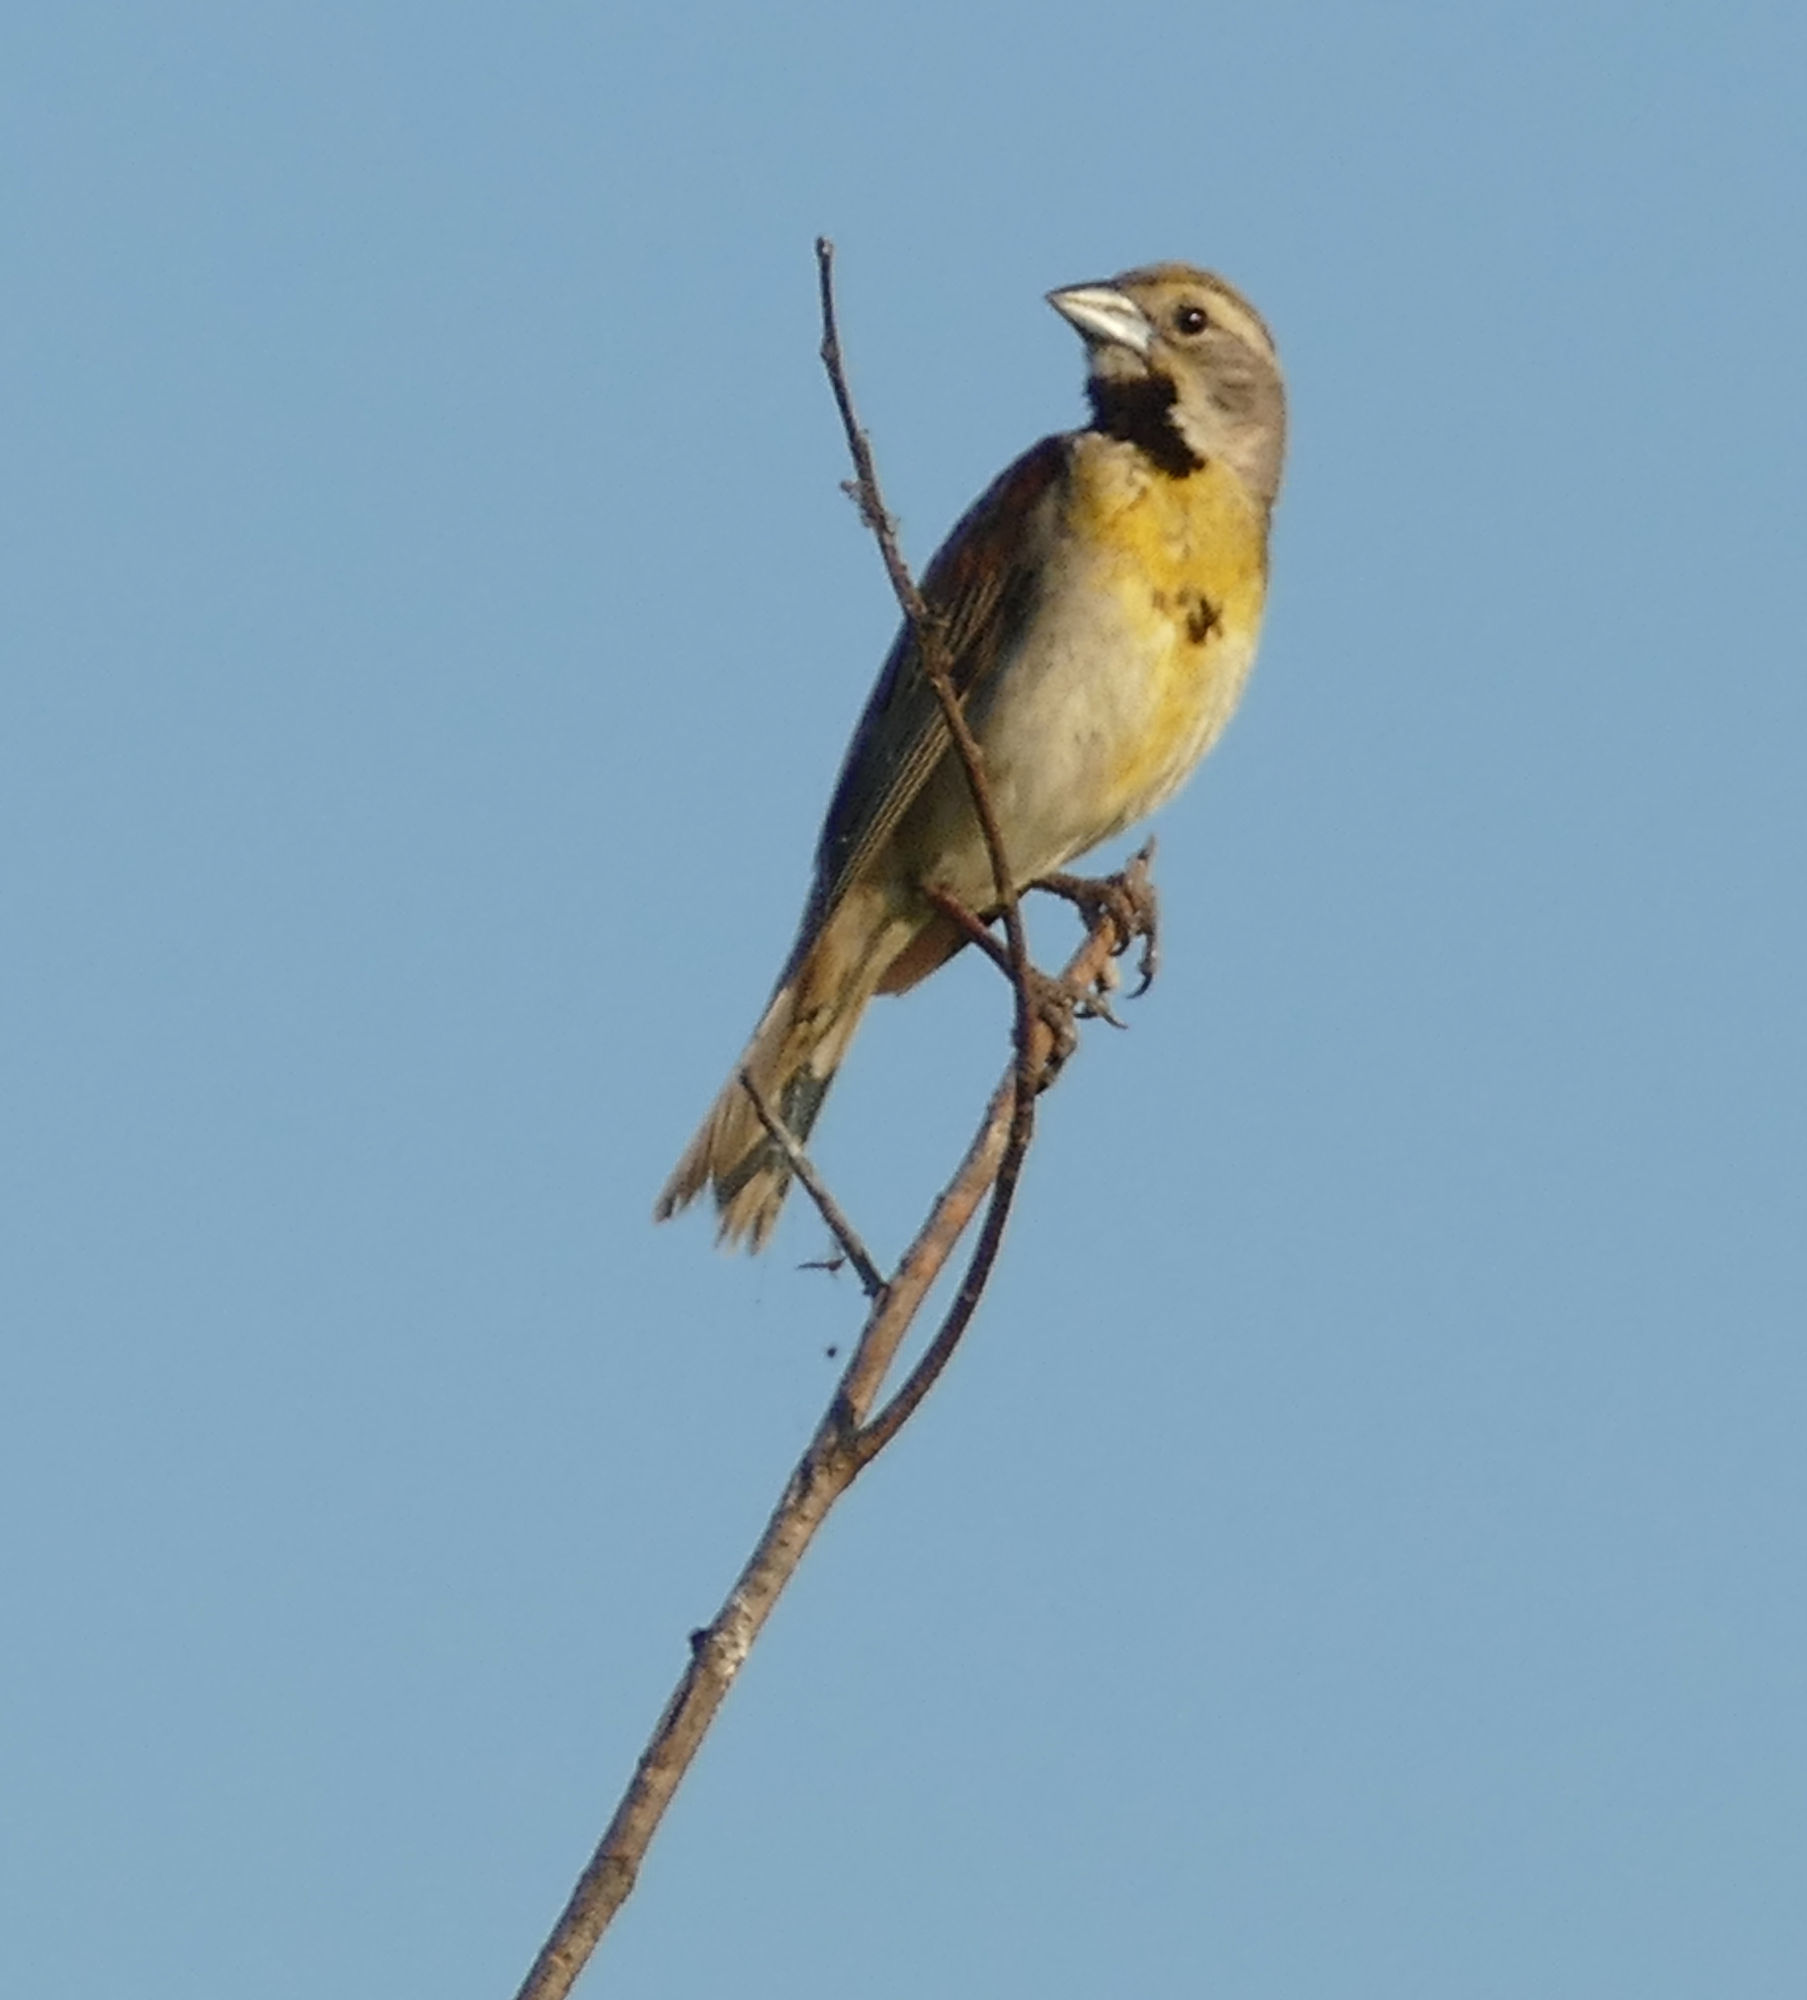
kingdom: Animalia
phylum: Chordata
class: Aves
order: Passeriformes
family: Cardinalidae
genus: Spiza
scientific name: Spiza americana
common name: Dickcissel
